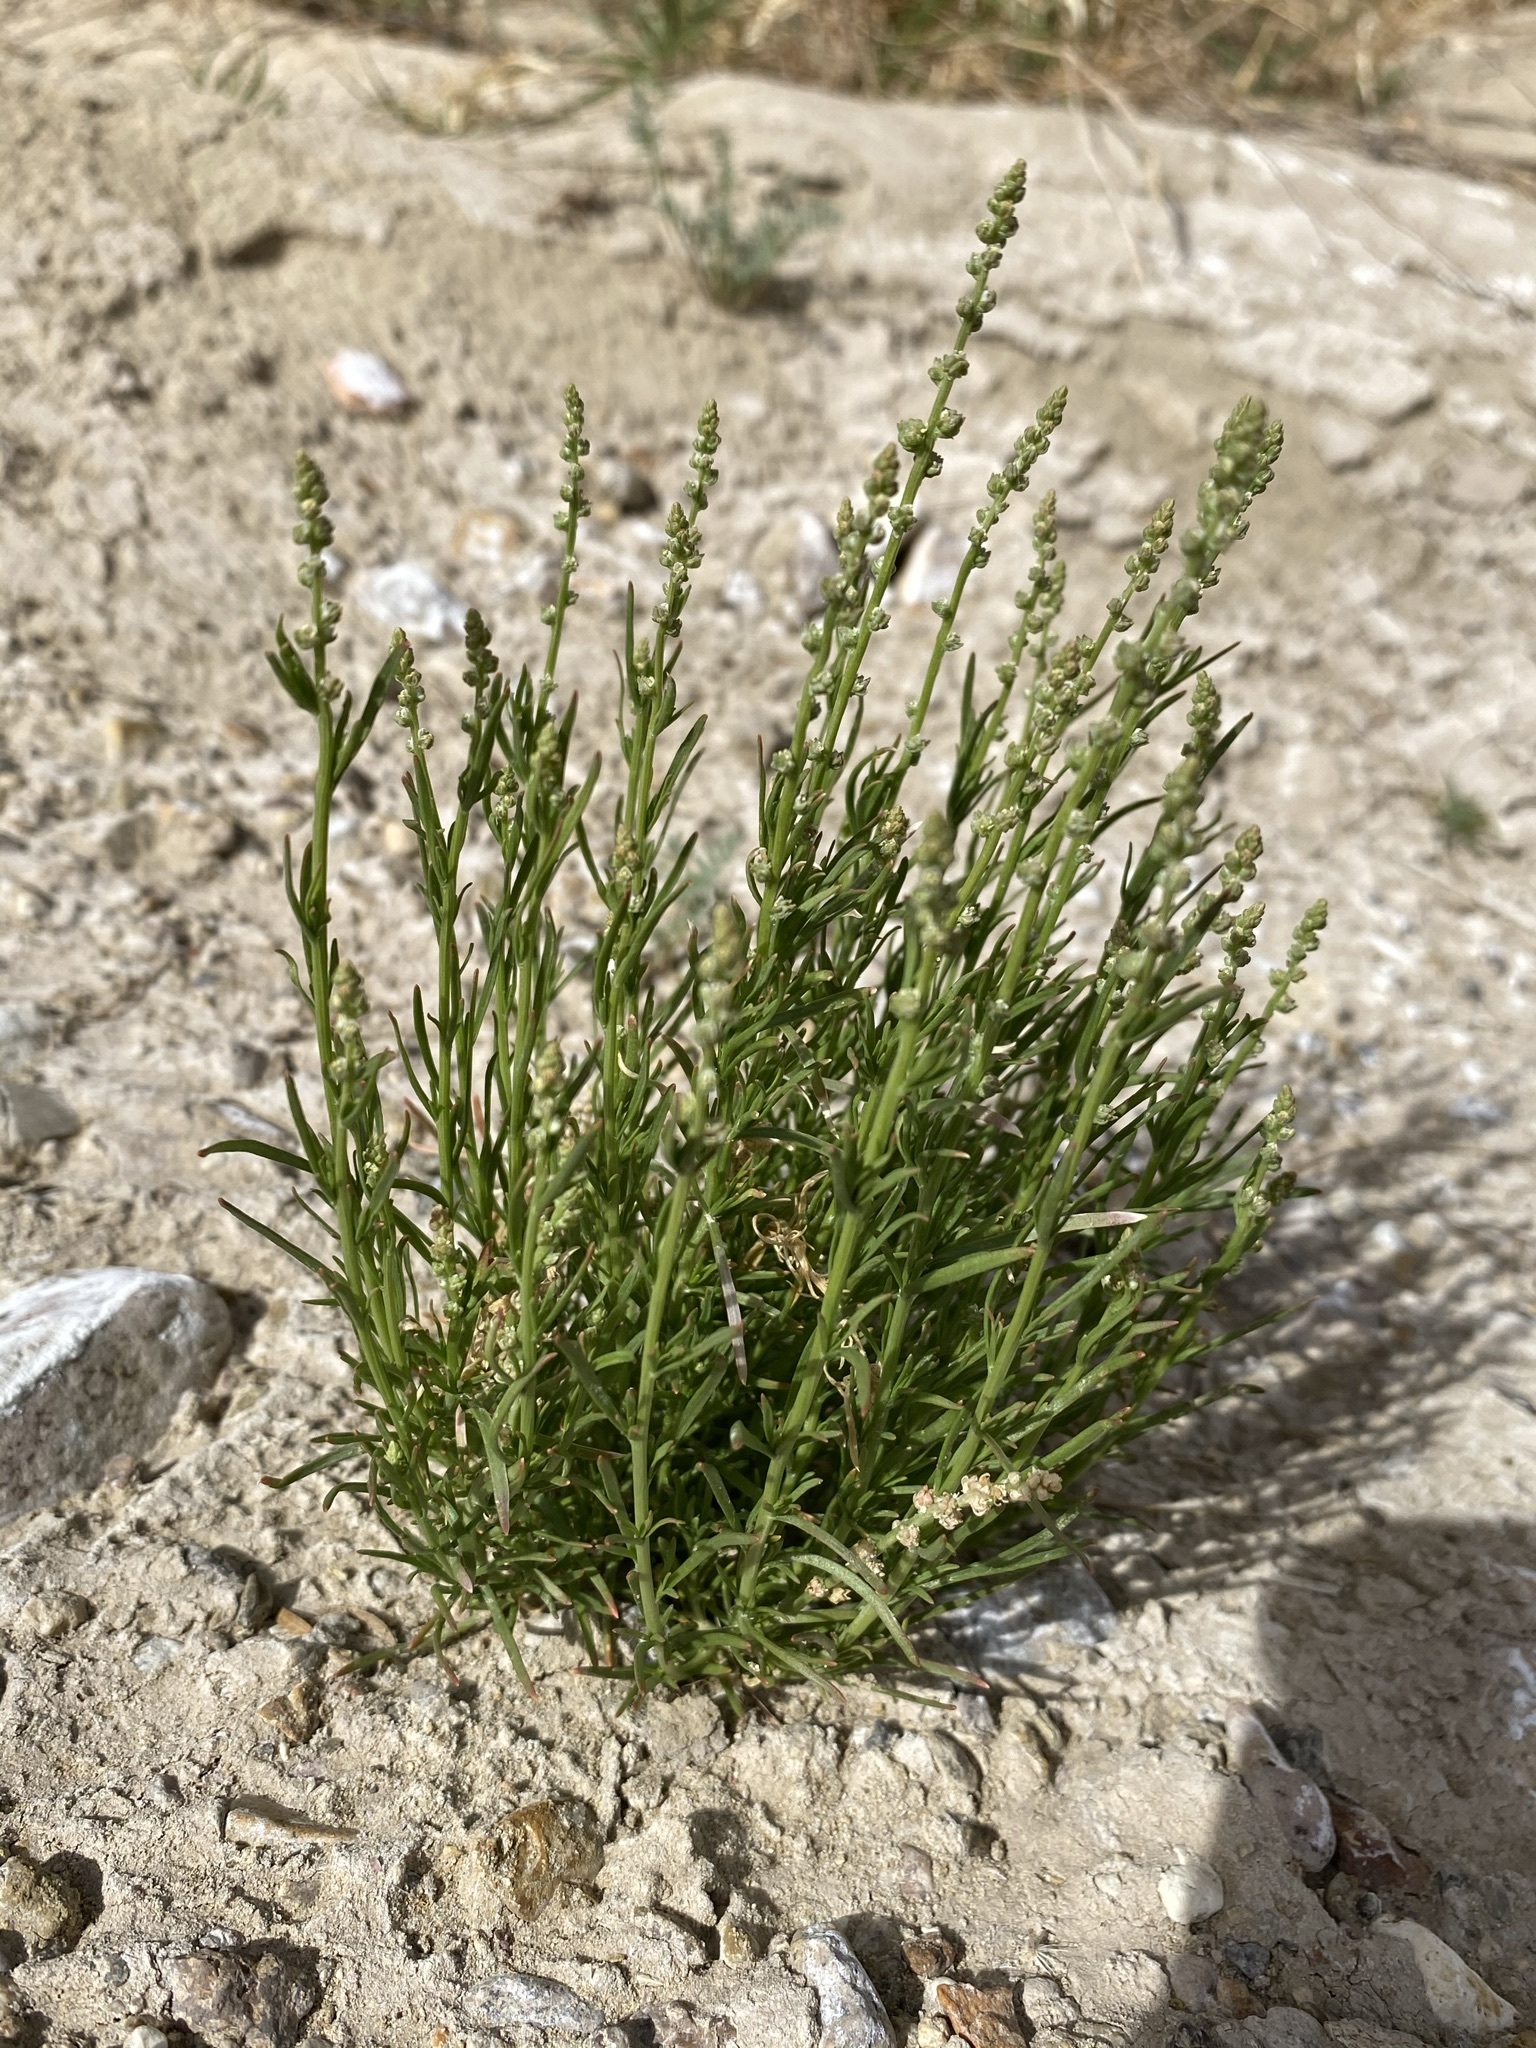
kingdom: Plantae
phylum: Tracheophyta
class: Magnoliopsida
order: Brassicales
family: Resedaceae
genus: Oligomeris
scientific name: Oligomeris linifolia
